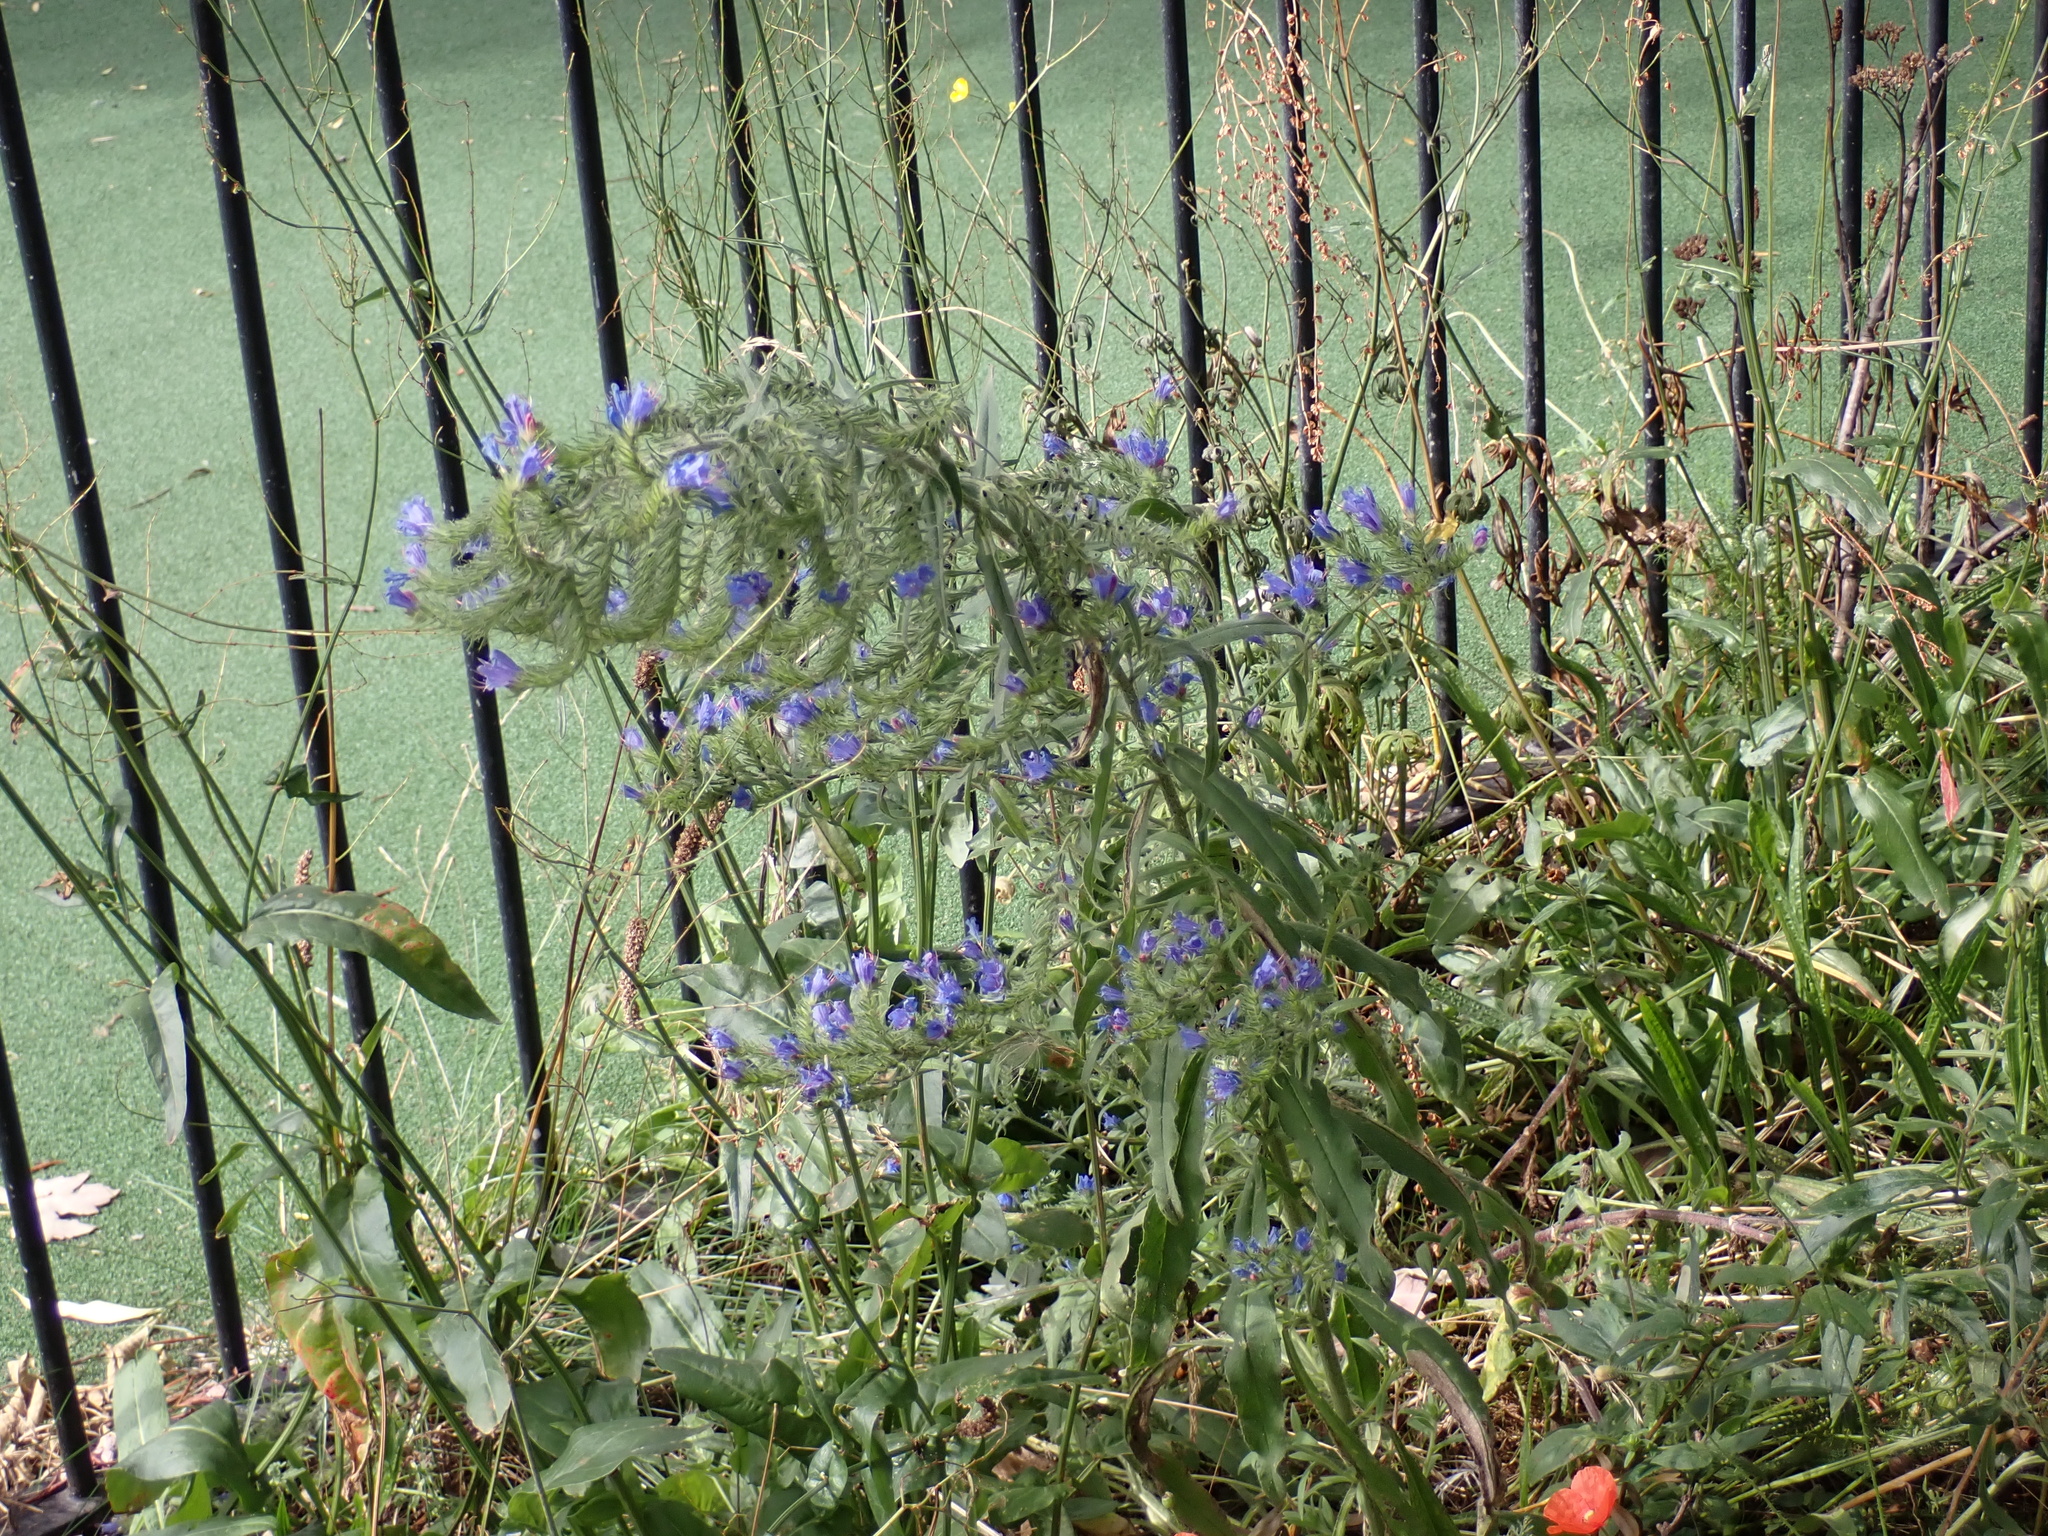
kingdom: Plantae
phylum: Tracheophyta
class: Magnoliopsida
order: Boraginales
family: Boraginaceae
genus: Echium
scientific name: Echium vulgare
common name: Common viper's bugloss
